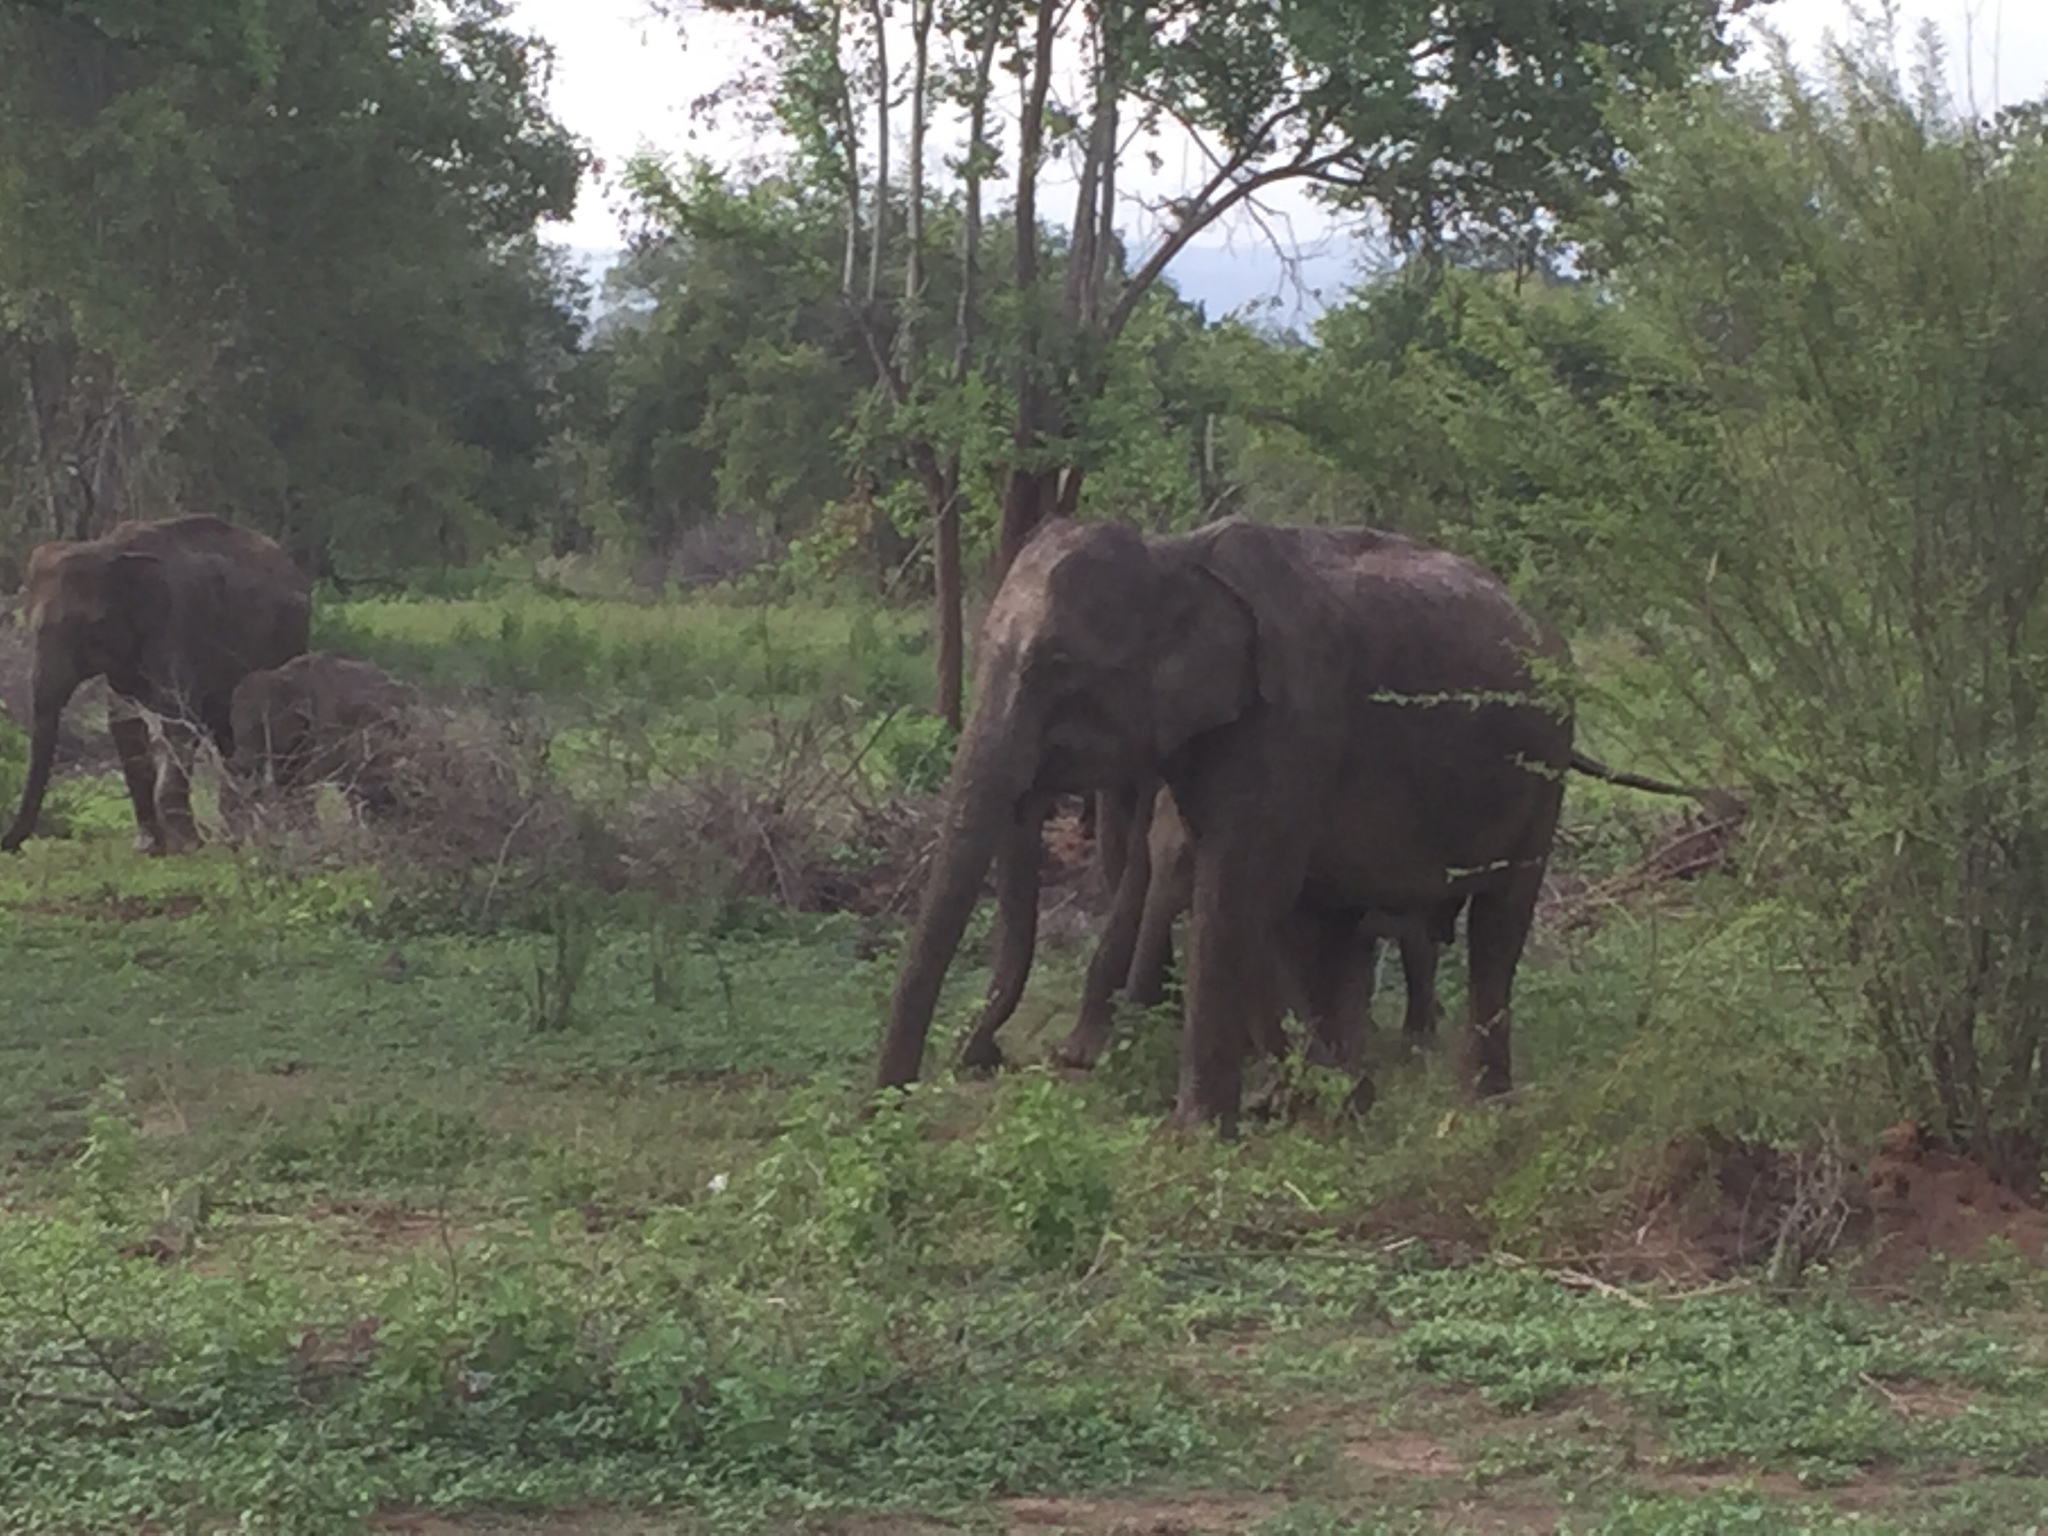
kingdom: Animalia
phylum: Chordata
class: Mammalia
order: Proboscidea
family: Elephantidae
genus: Elephas
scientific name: Elephas maximus
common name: Asian elephant
